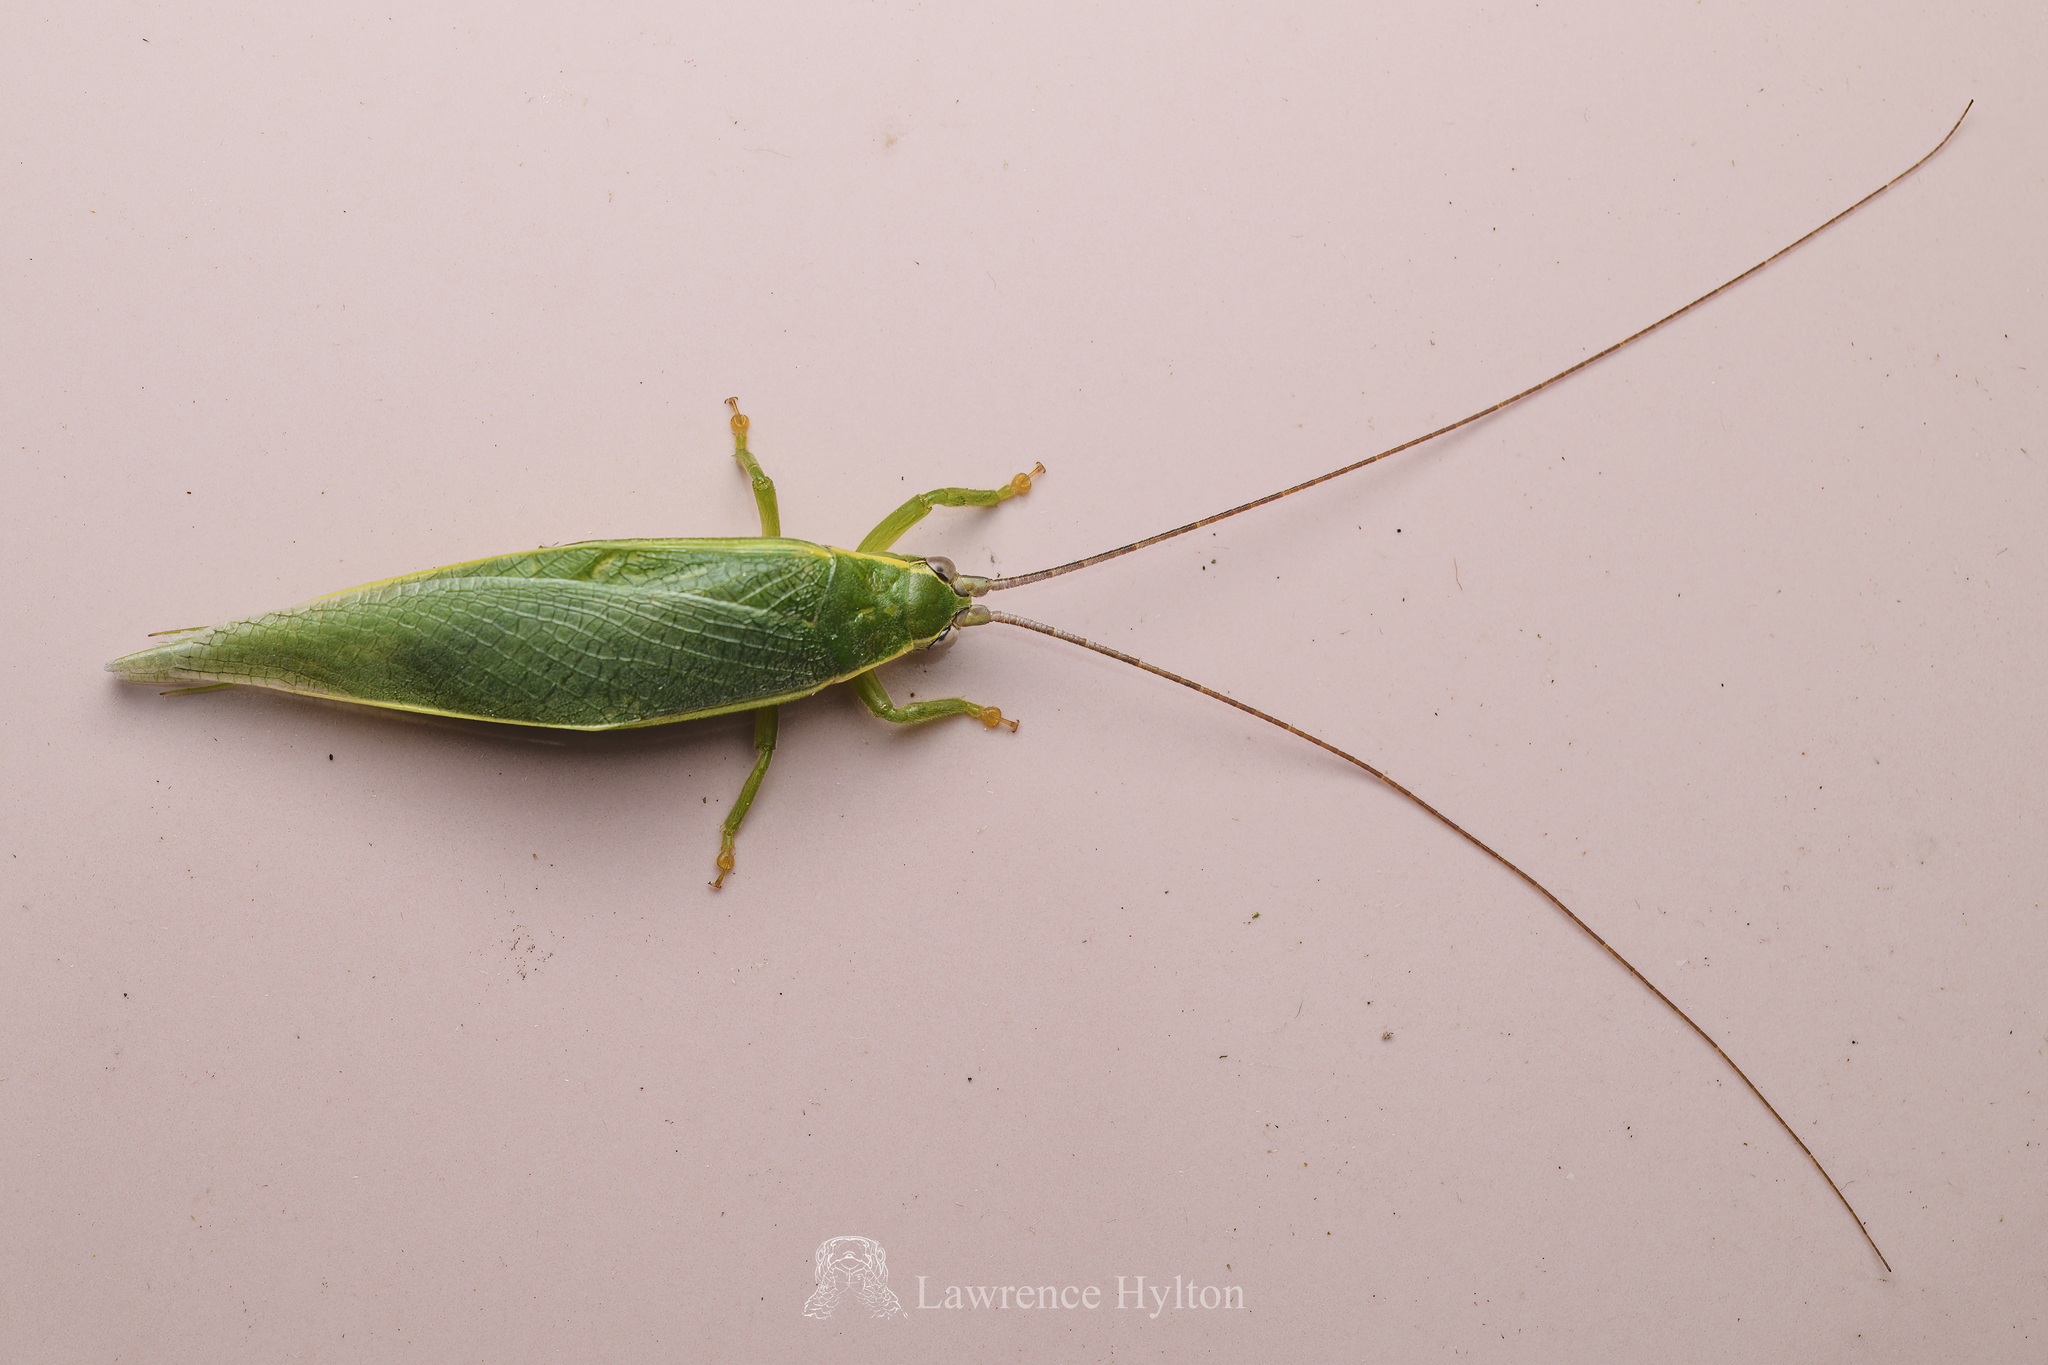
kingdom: Animalia
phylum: Arthropoda
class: Insecta
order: Orthoptera
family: Gryllidae
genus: Truljalia
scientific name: Truljalia hibinonis
